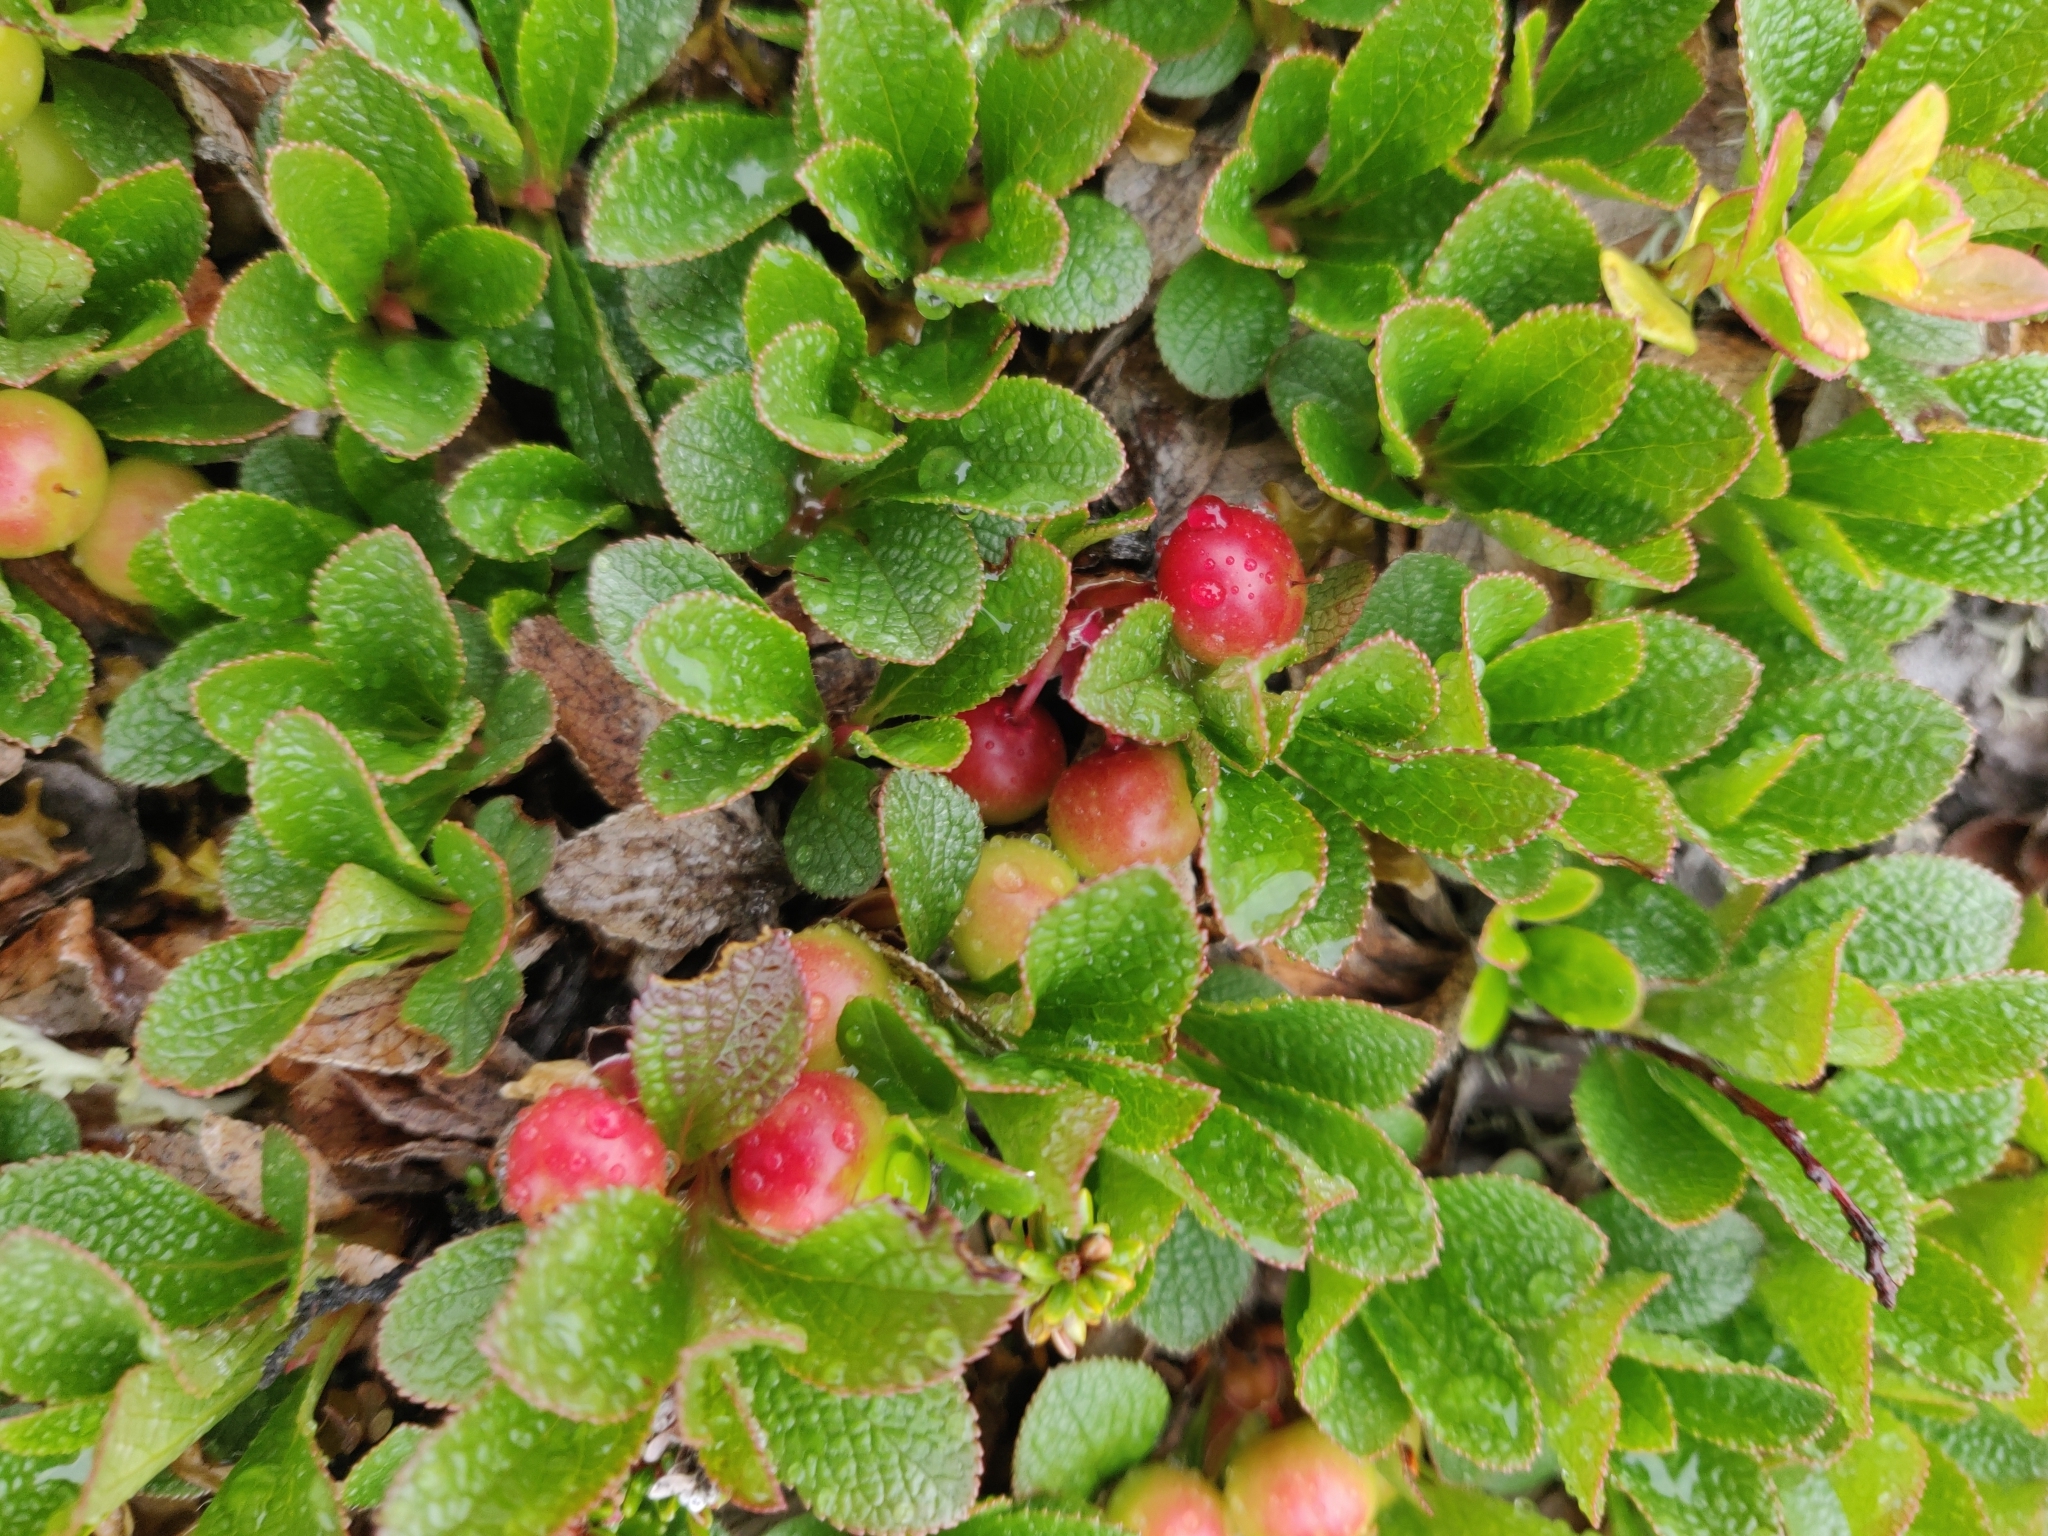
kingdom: Plantae
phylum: Tracheophyta
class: Magnoliopsida
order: Ericales
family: Ericaceae
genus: Arctostaphylos
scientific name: Arctostaphylos alpinus
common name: Alpine bearberry
